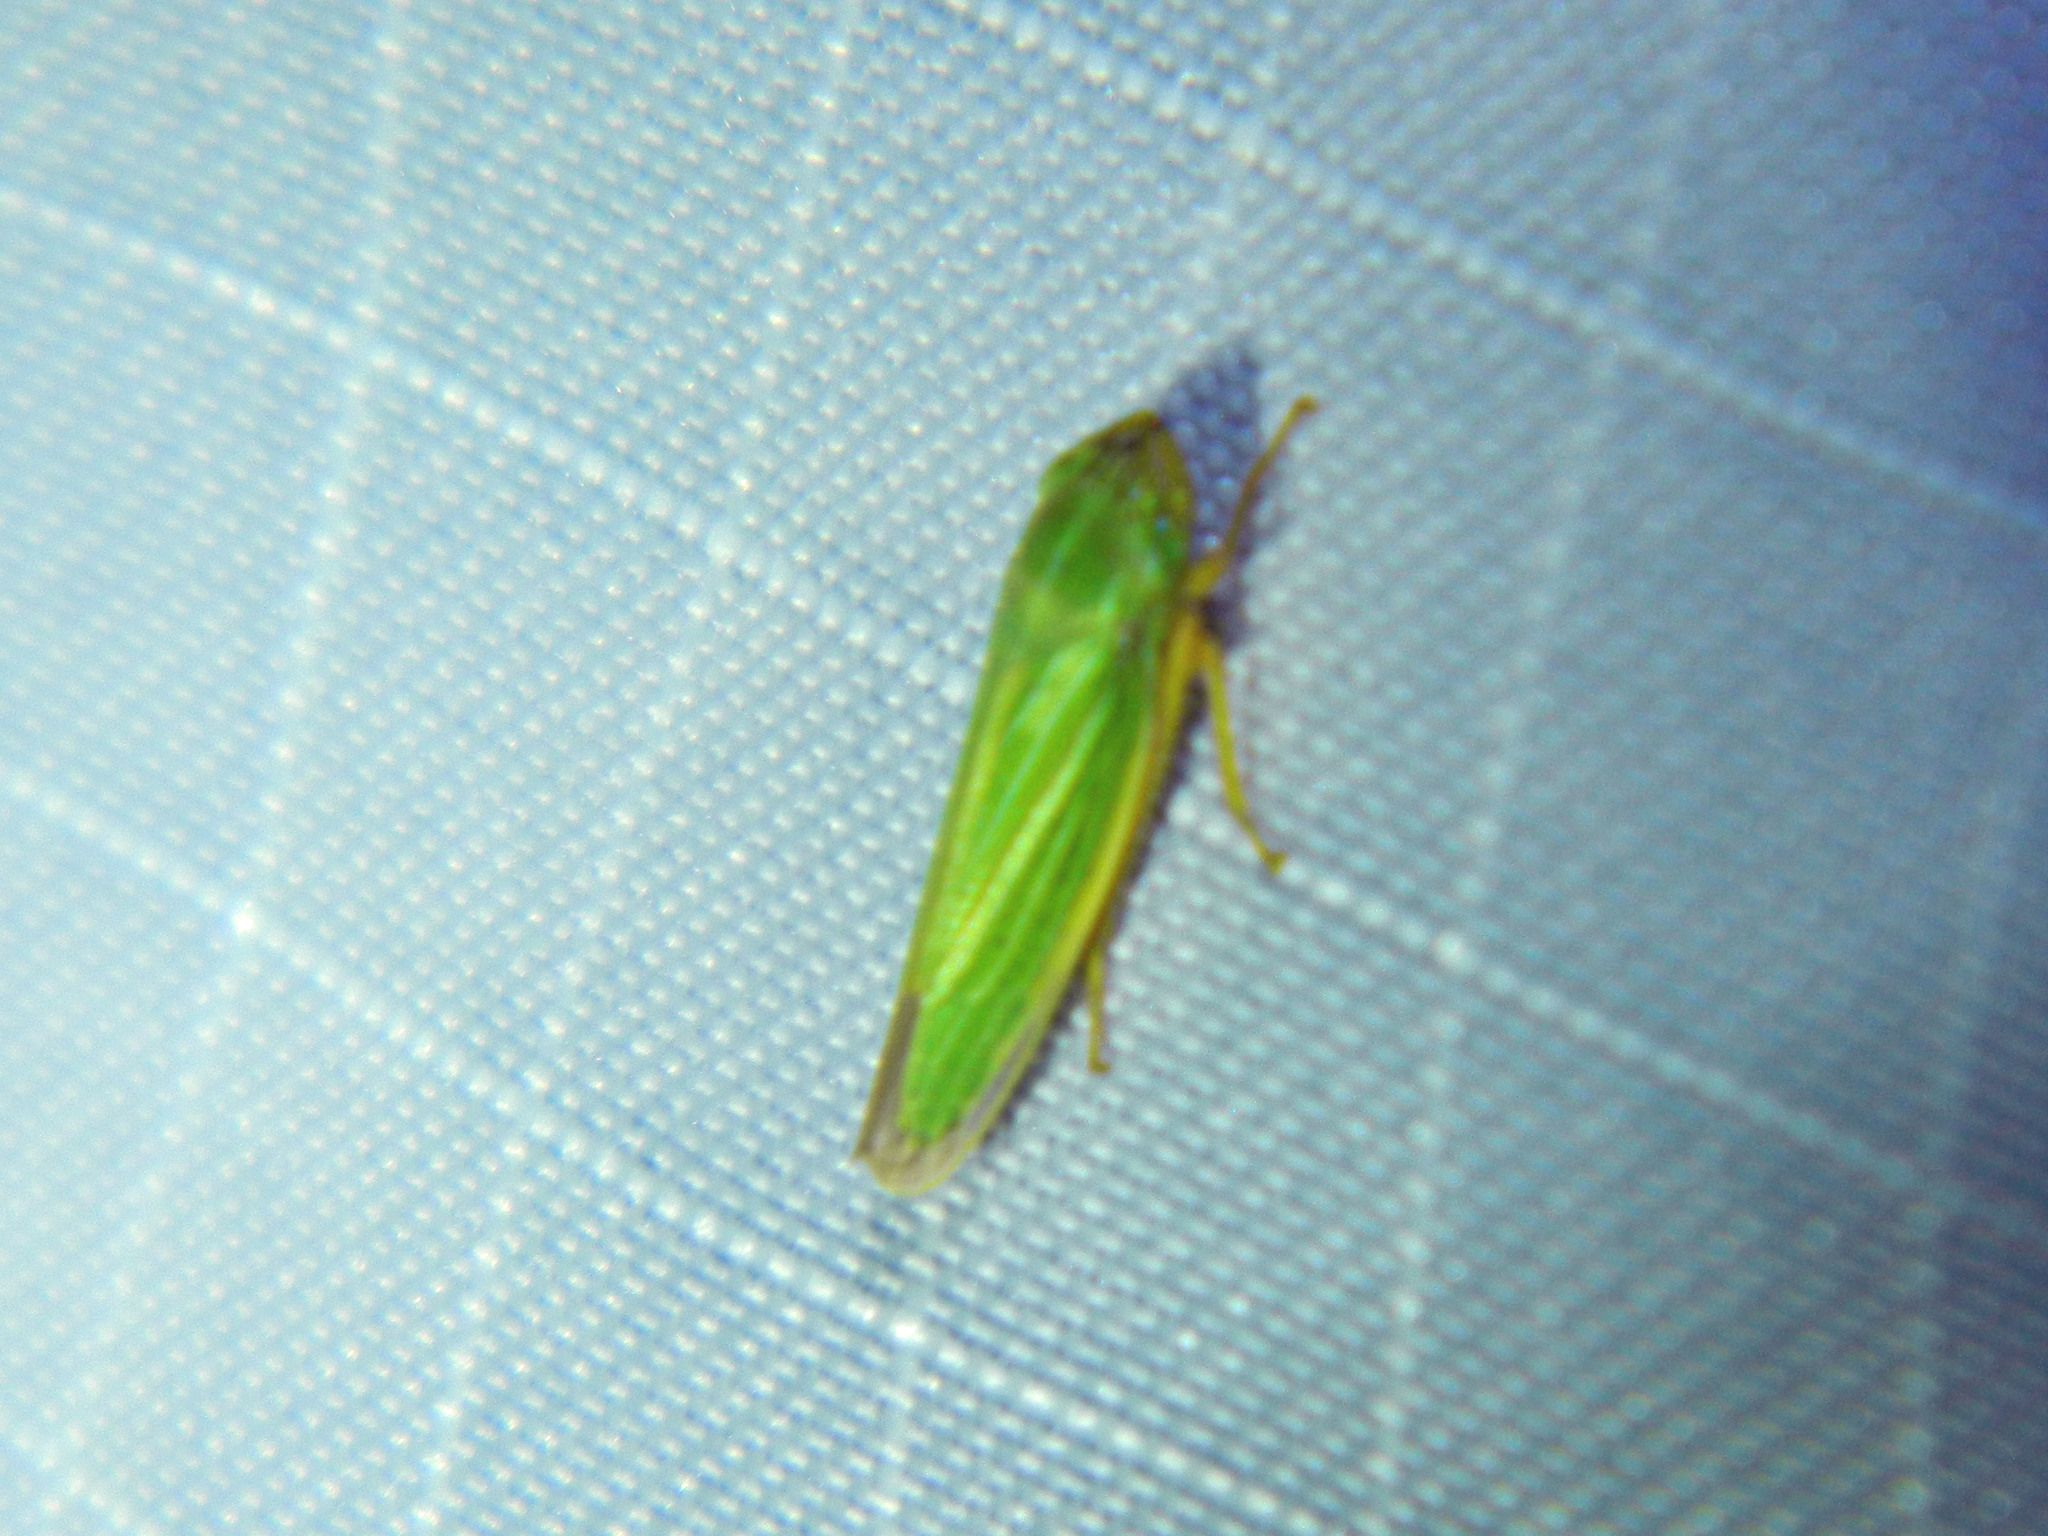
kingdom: Animalia
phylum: Arthropoda
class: Insecta
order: Hemiptera
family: Cicadellidae
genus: Draeculacephala
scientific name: Draeculacephala angulifera
